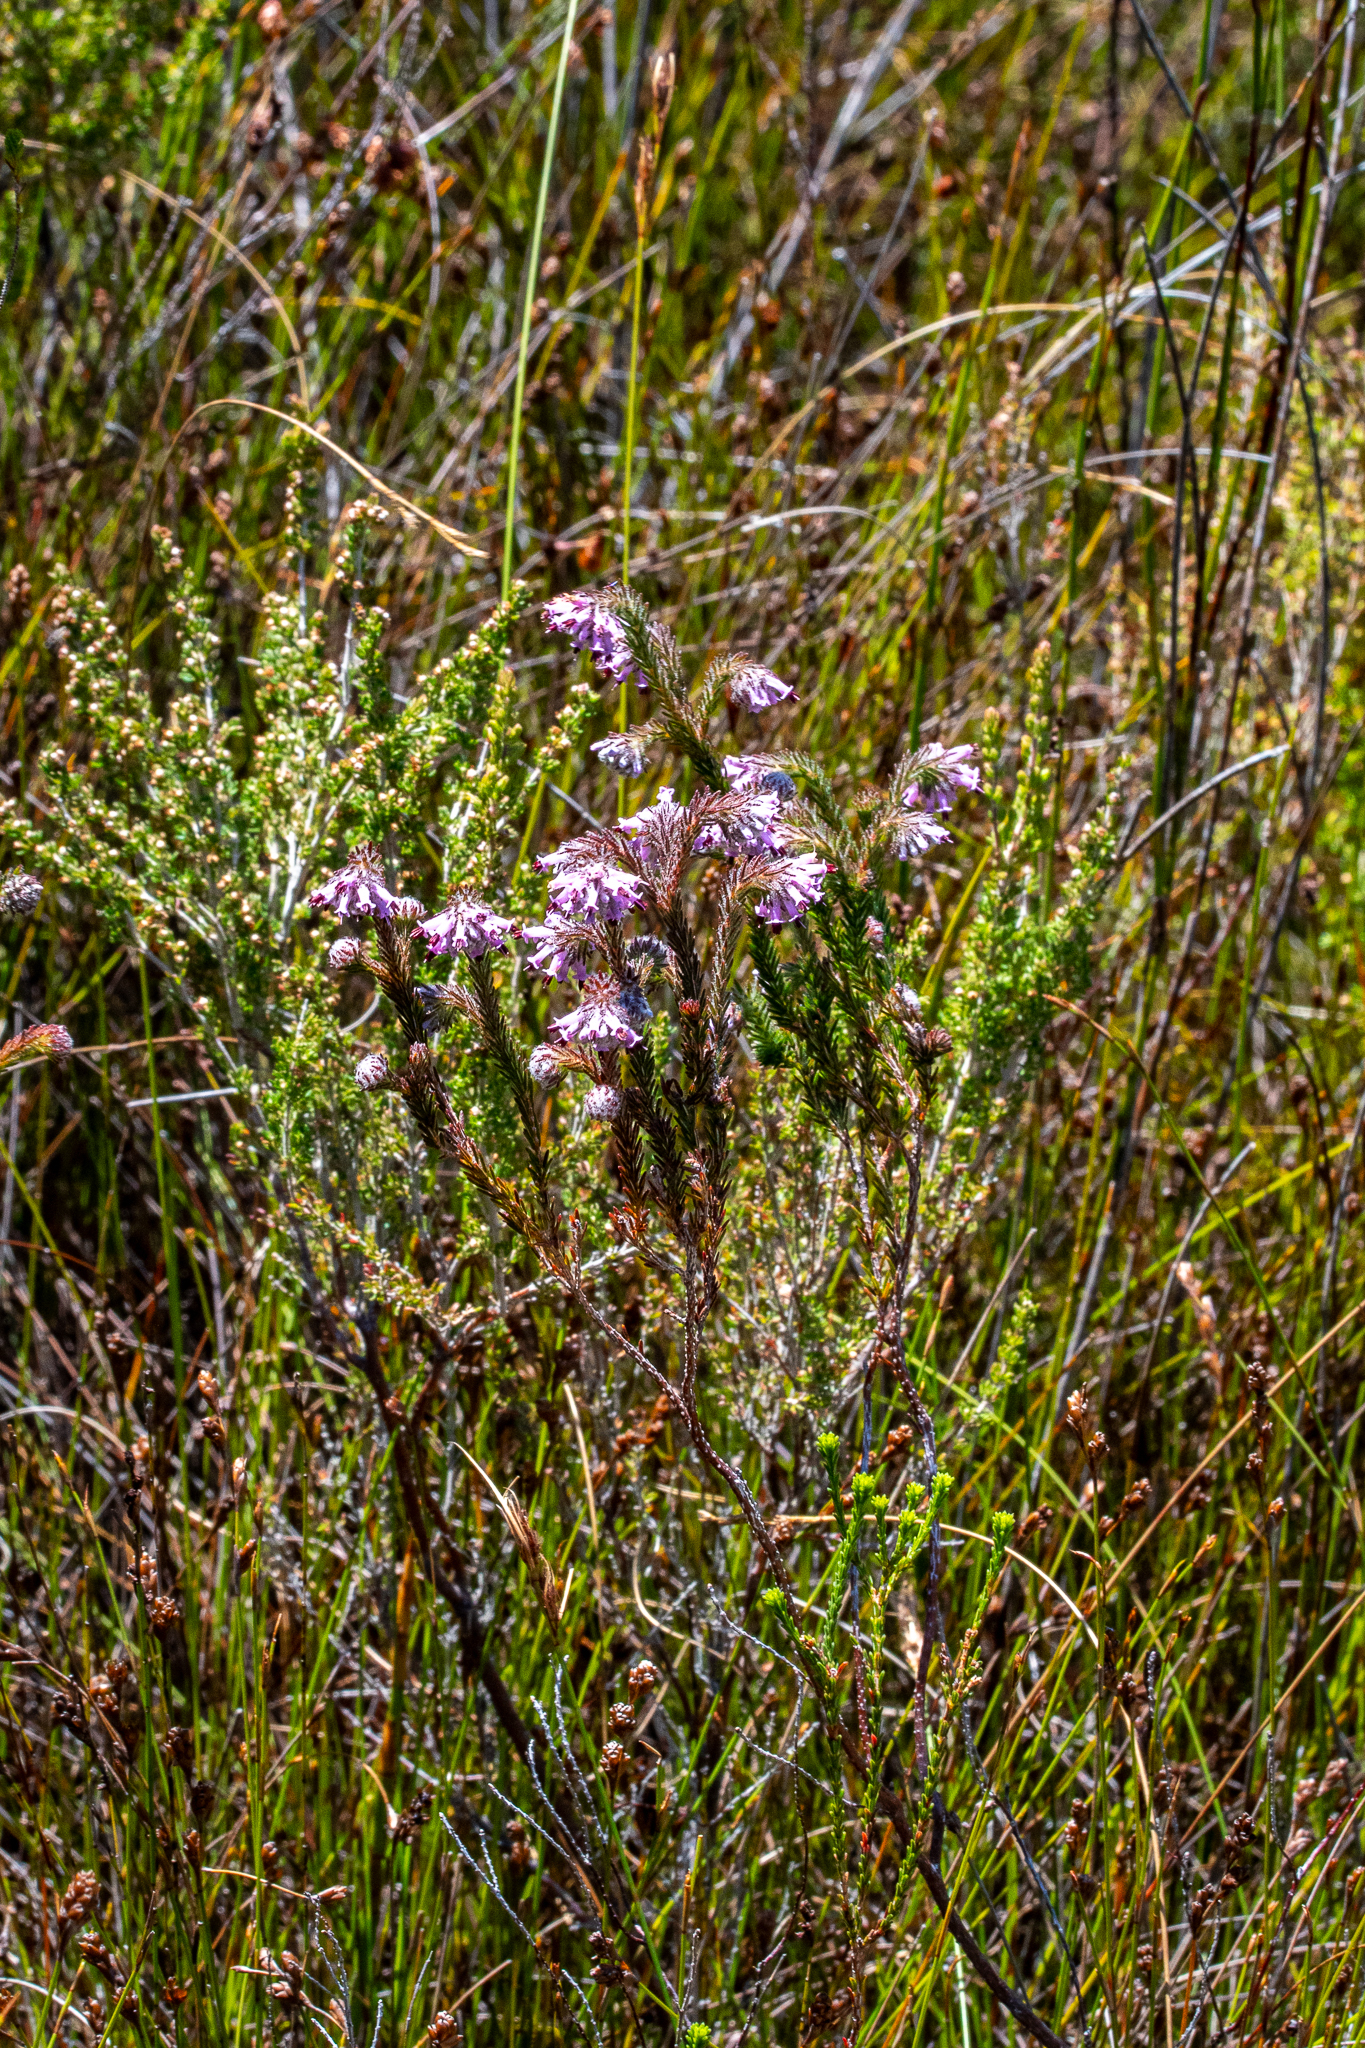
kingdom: Plantae
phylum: Tracheophyta
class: Magnoliopsida
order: Ericales
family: Ericaceae
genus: Erica
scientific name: Erica barbigeroides
